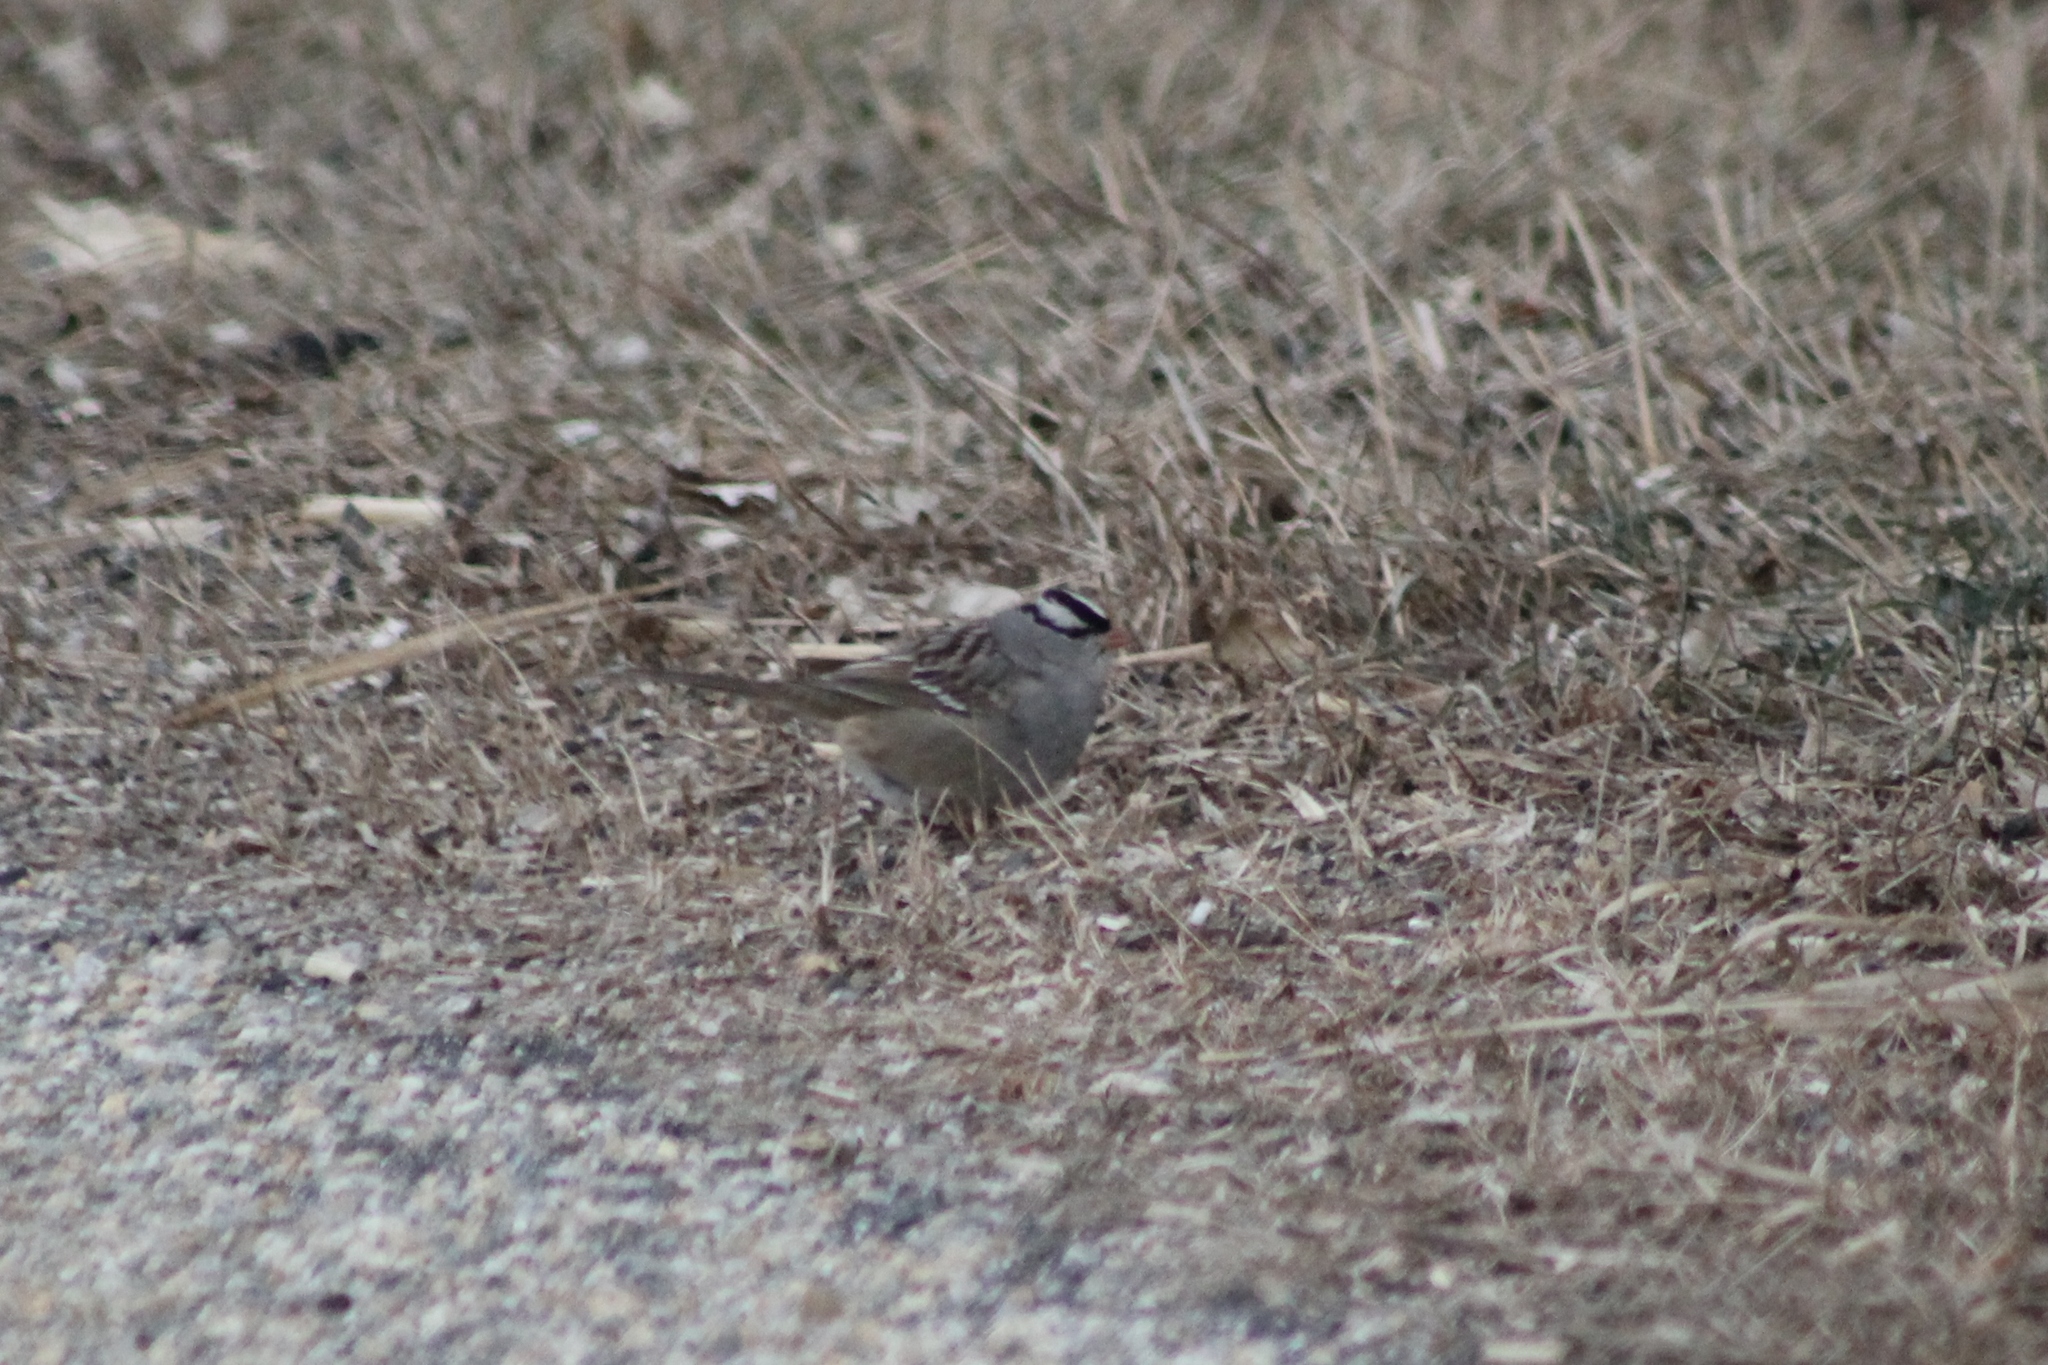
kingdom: Animalia
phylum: Chordata
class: Aves
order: Passeriformes
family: Passerellidae
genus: Zonotrichia
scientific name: Zonotrichia leucophrys
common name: White-crowned sparrow
